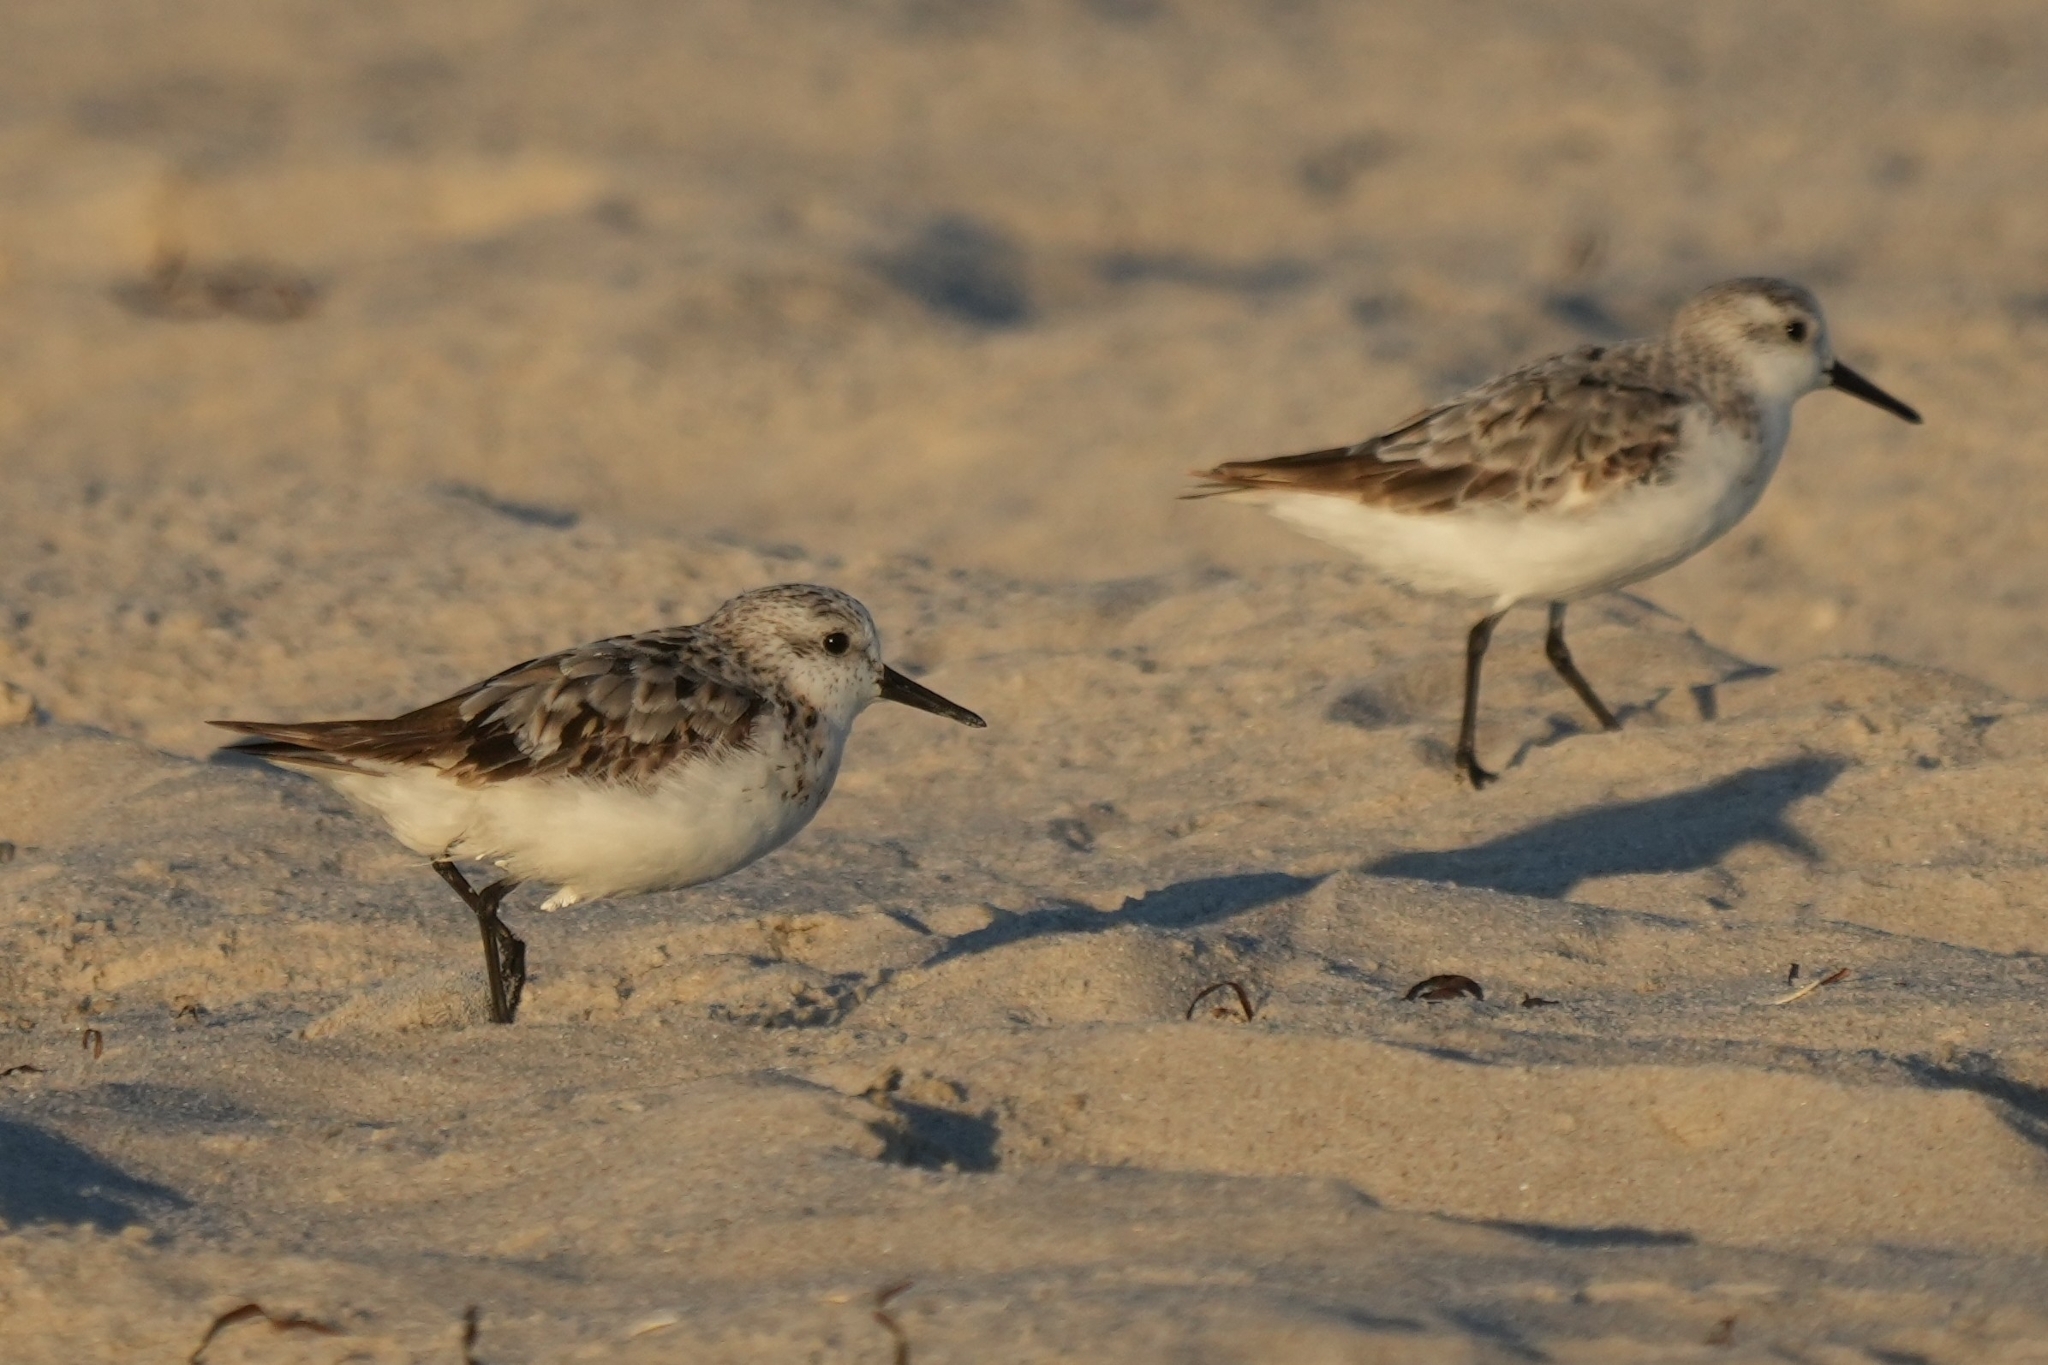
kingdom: Animalia
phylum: Chordata
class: Aves
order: Charadriiformes
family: Scolopacidae
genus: Calidris
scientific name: Calidris alba
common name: Sanderling
